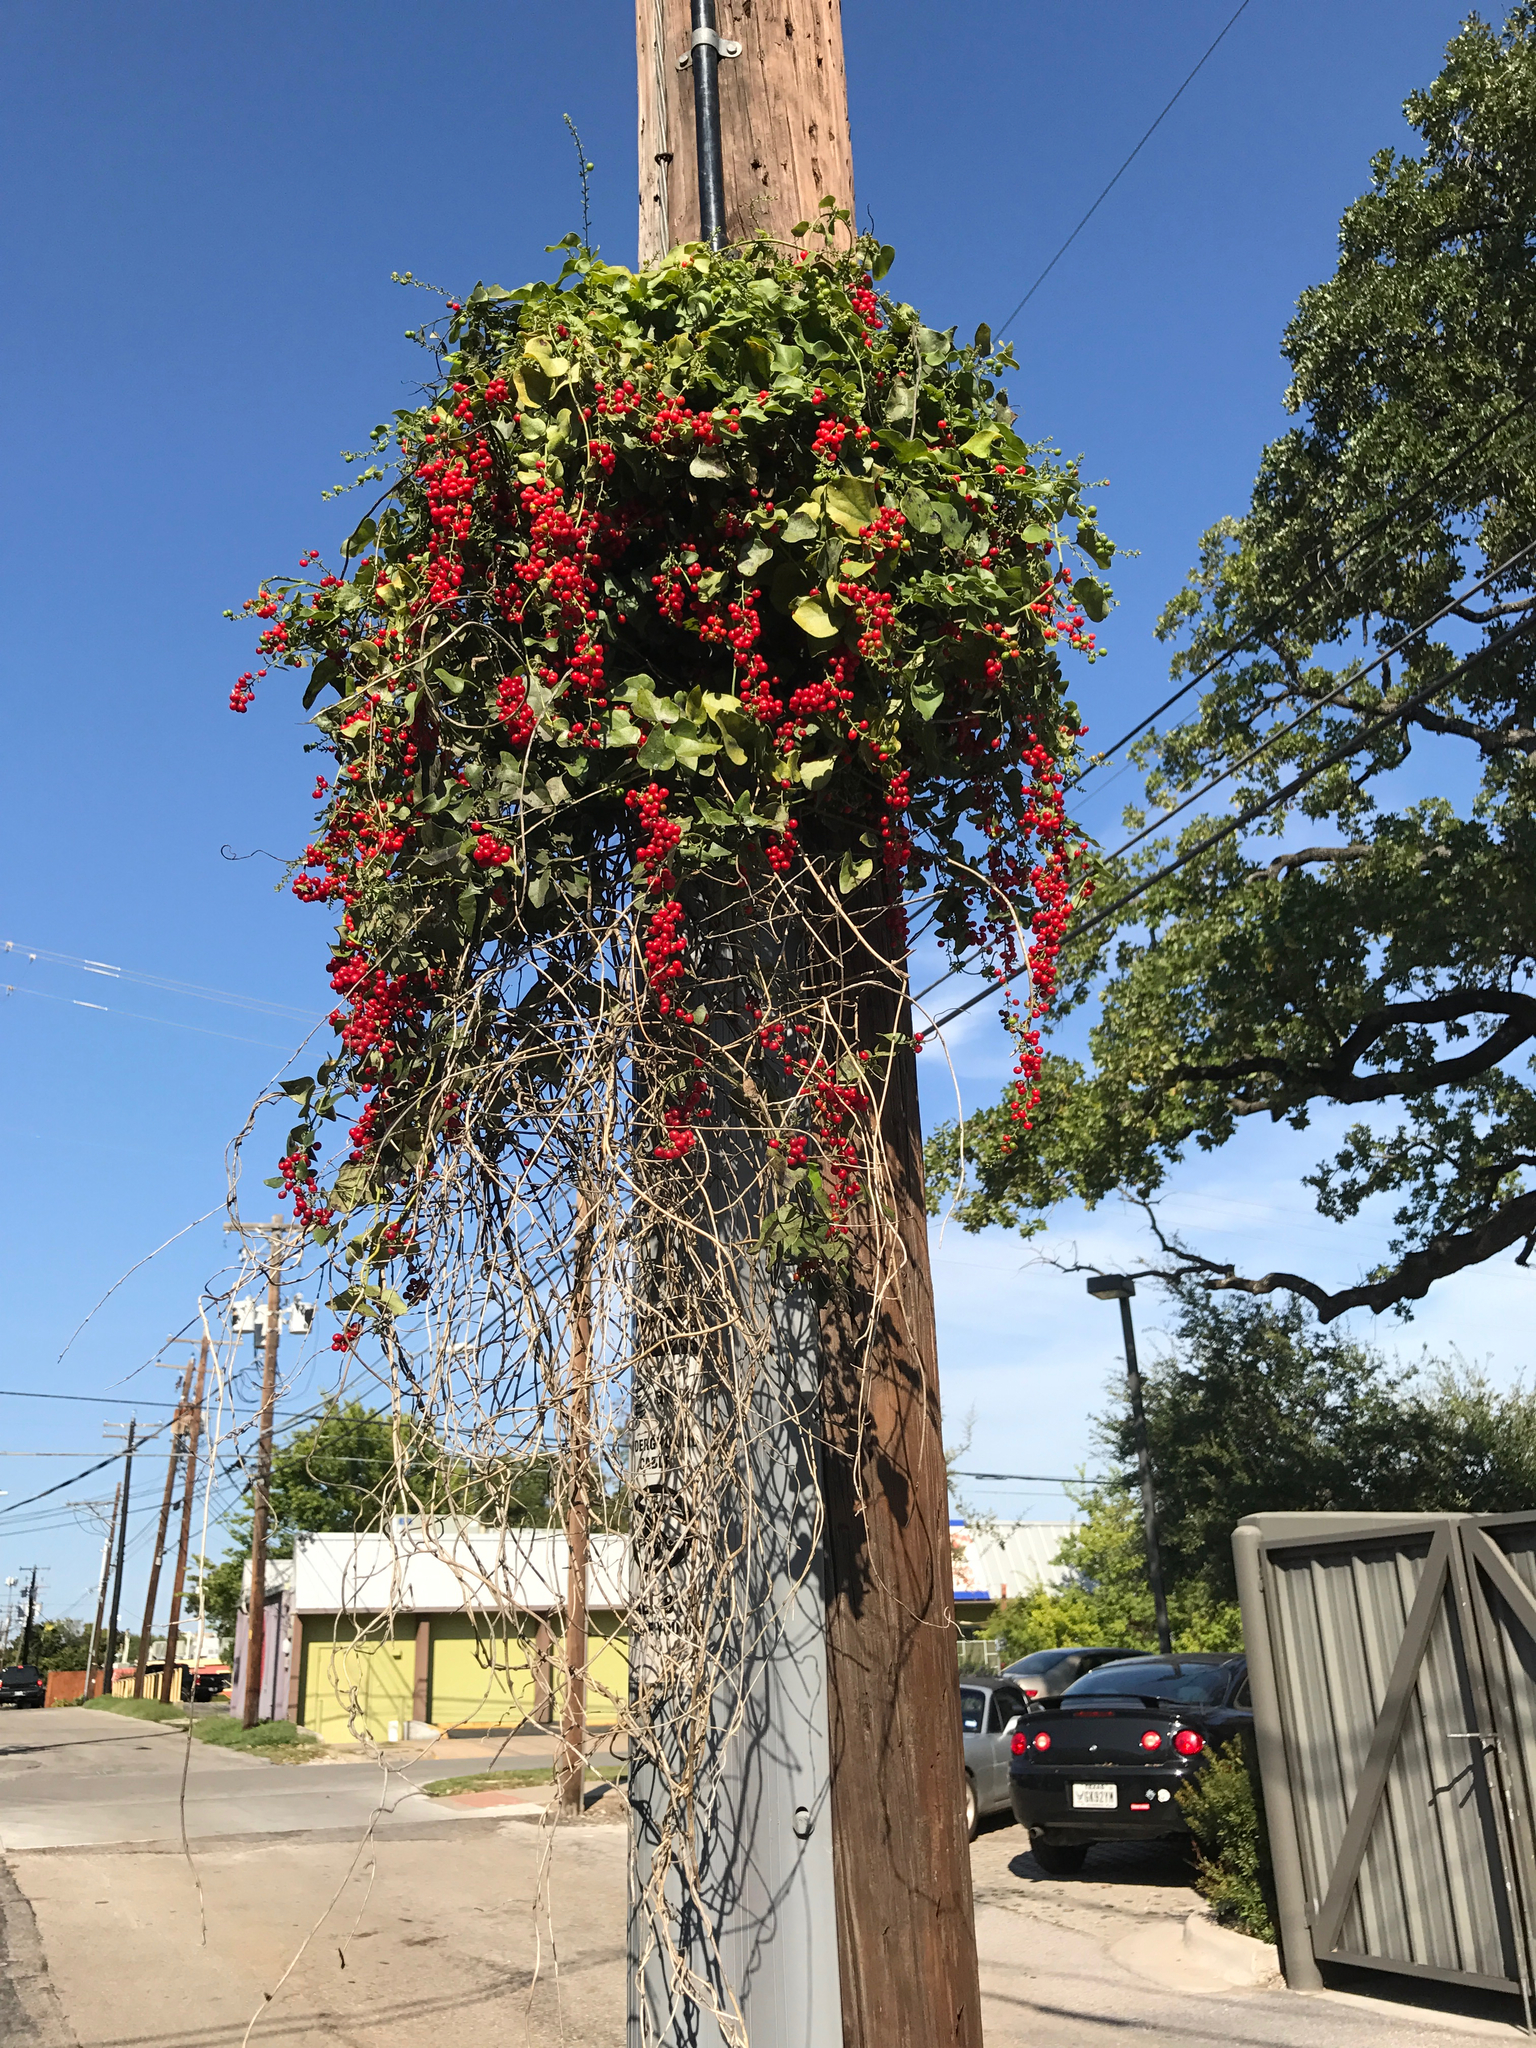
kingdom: Plantae
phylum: Tracheophyta
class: Magnoliopsida
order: Ranunculales
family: Menispermaceae
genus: Cocculus
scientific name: Cocculus carolinus
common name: Carolina moonseed
